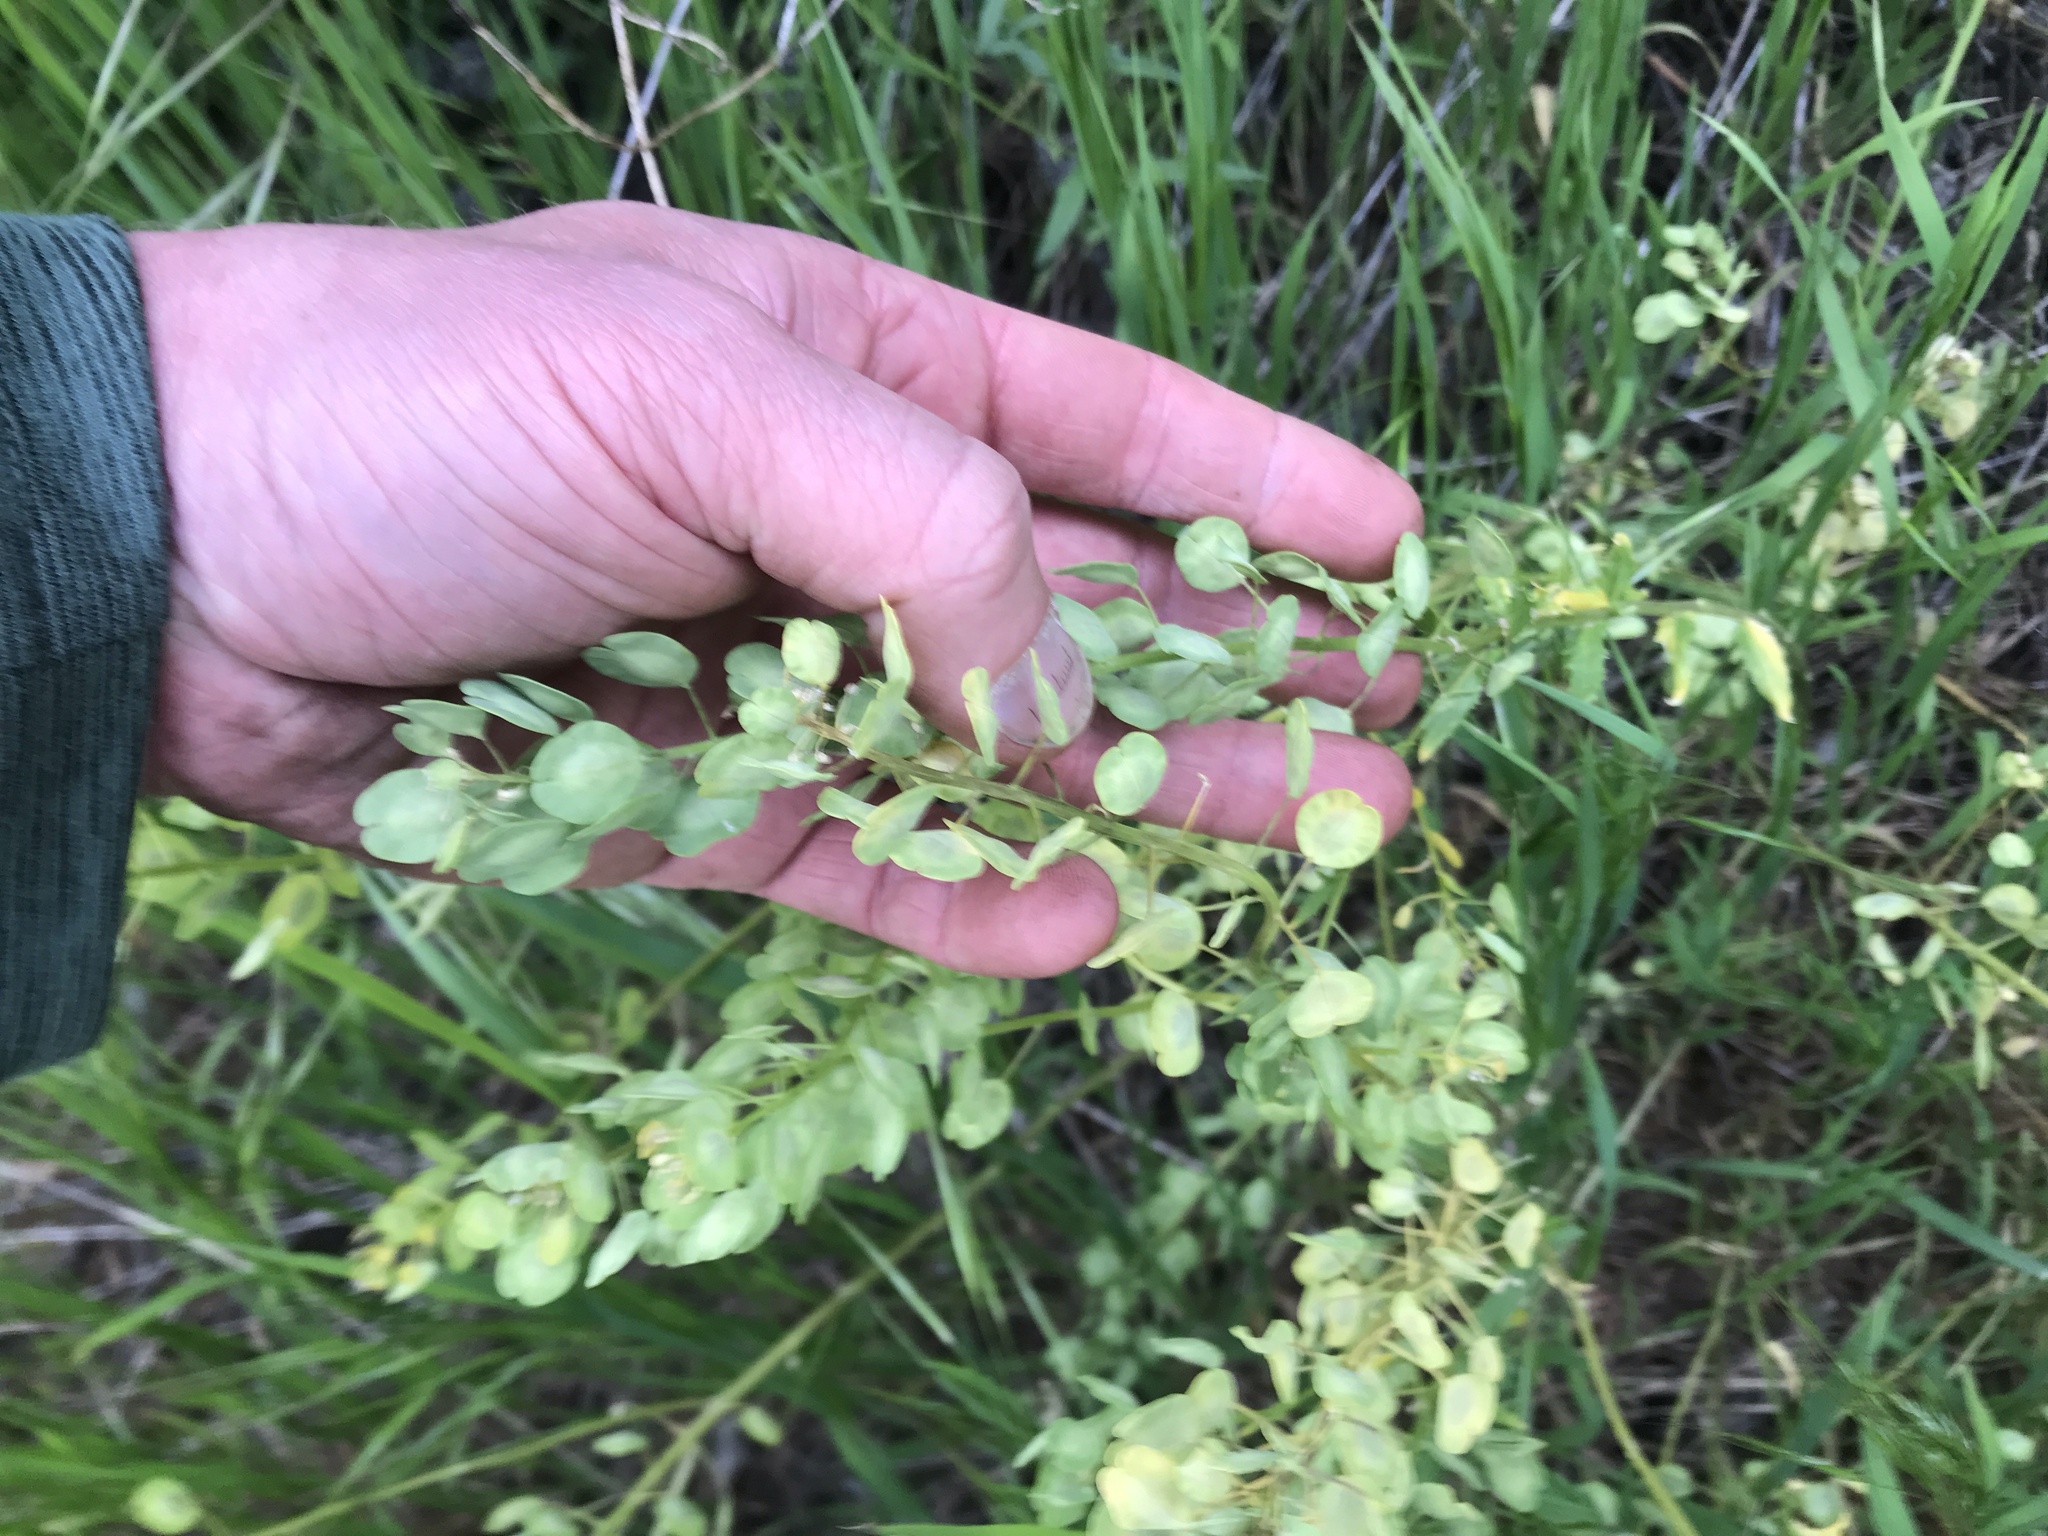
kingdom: Plantae
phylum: Tracheophyta
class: Magnoliopsida
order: Brassicales
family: Brassicaceae
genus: Thlaspi
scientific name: Thlaspi arvense
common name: Field pennycress
